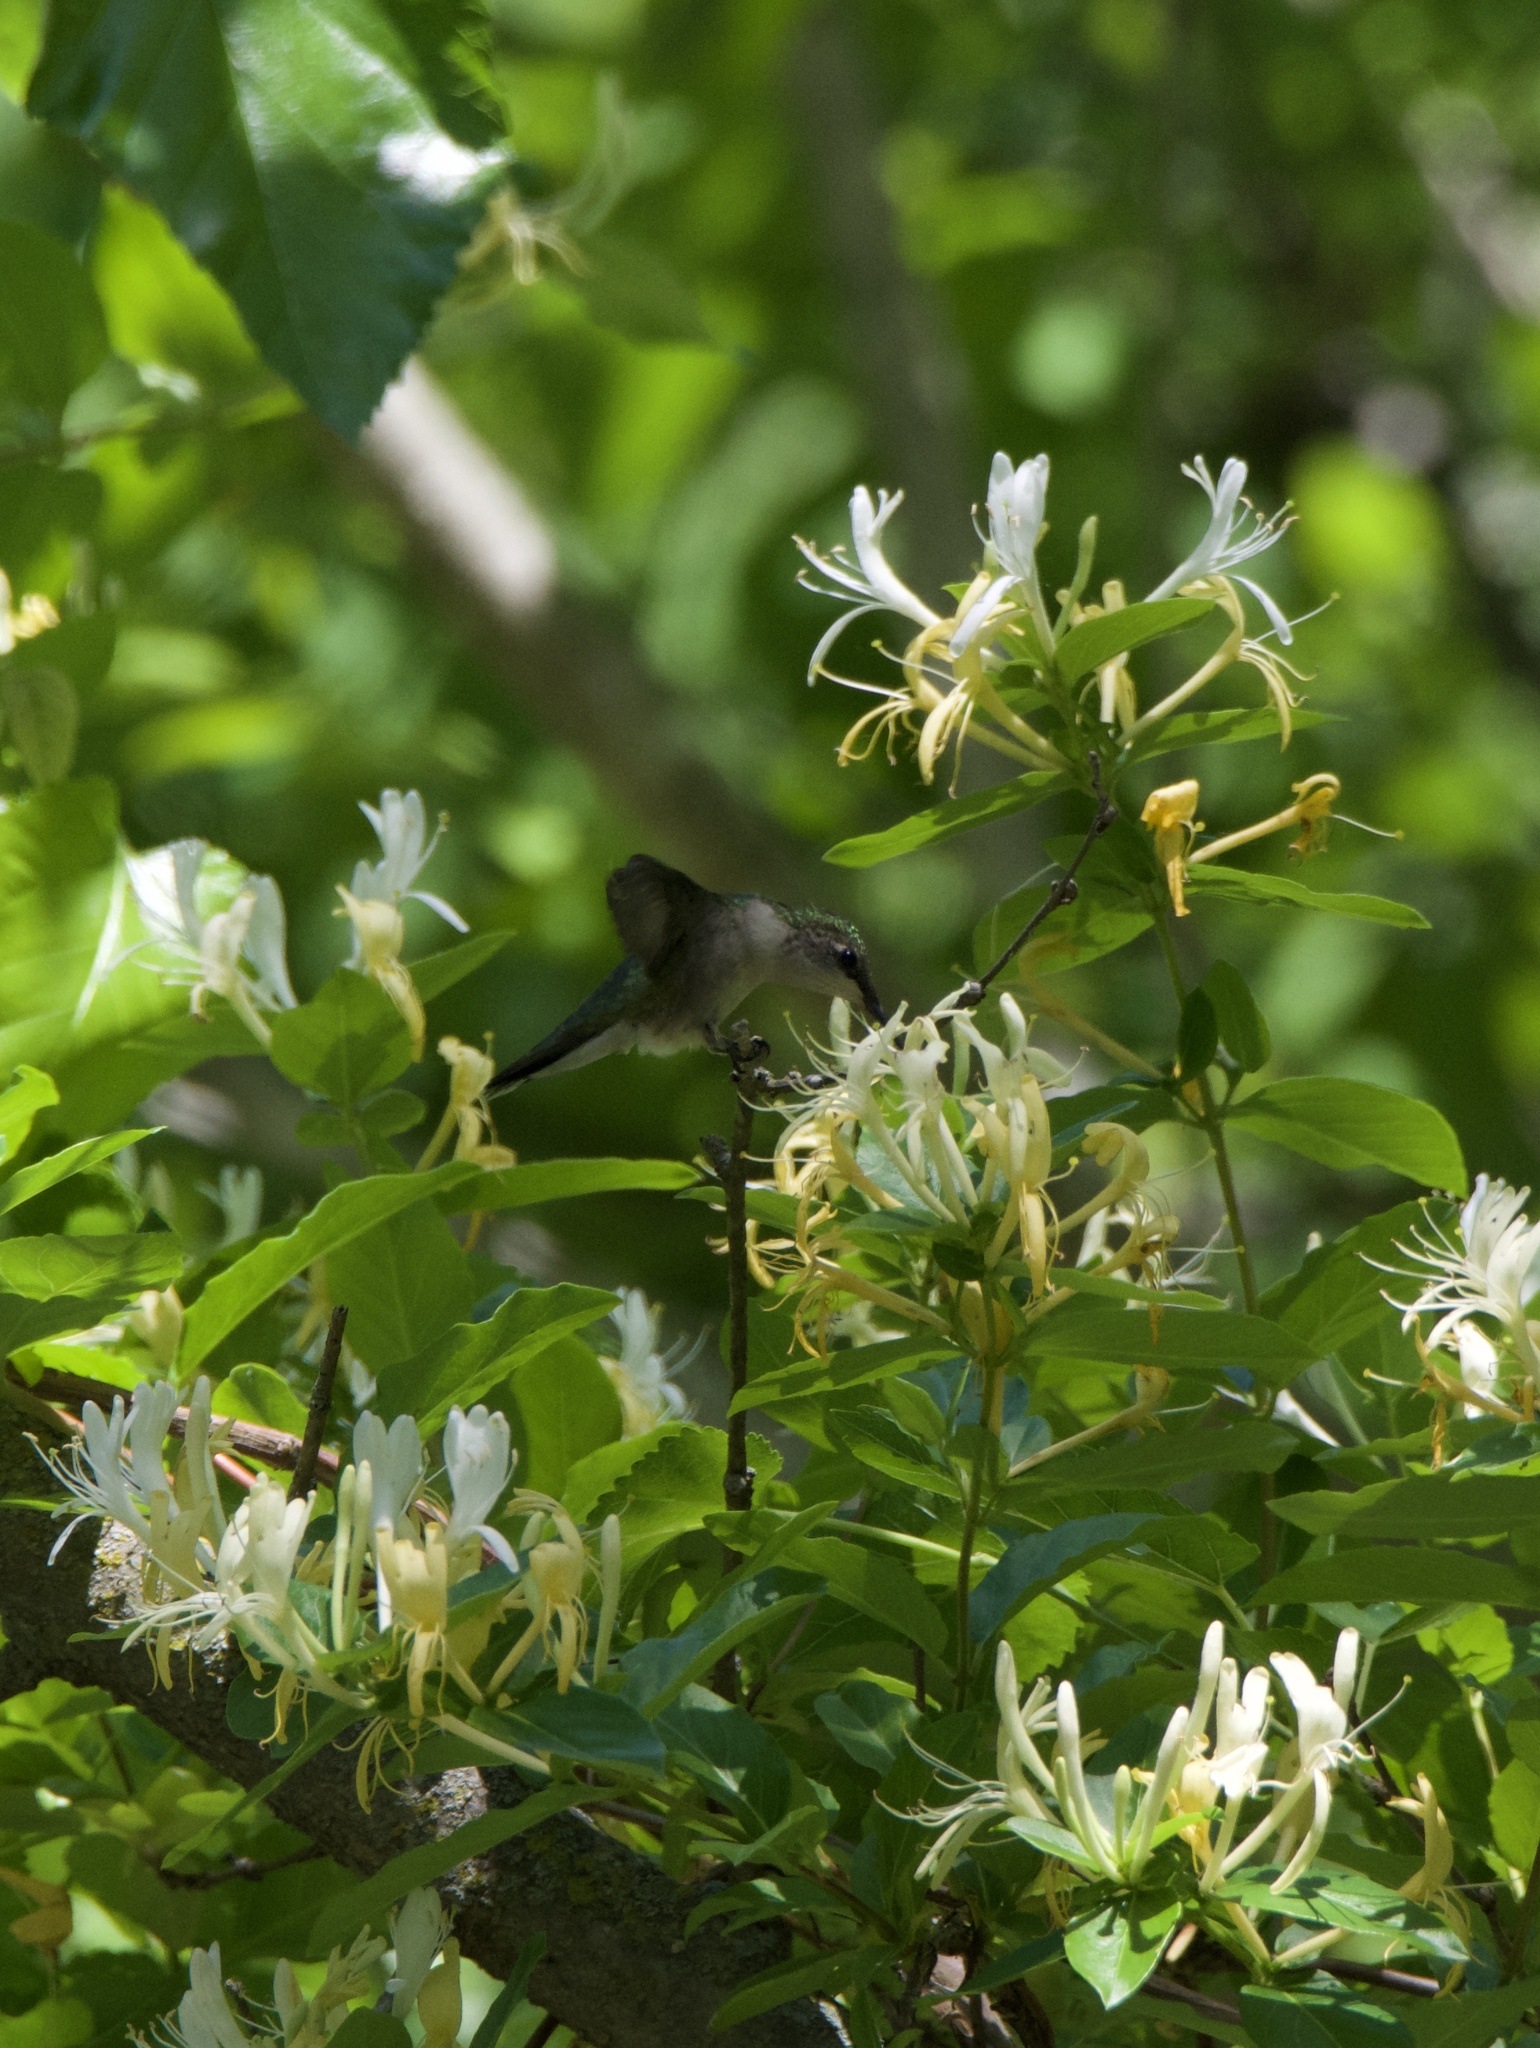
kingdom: Animalia
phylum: Chordata
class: Aves
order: Apodiformes
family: Trochilidae
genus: Archilochus
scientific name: Archilochus colubris
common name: Ruby-throated hummingbird
